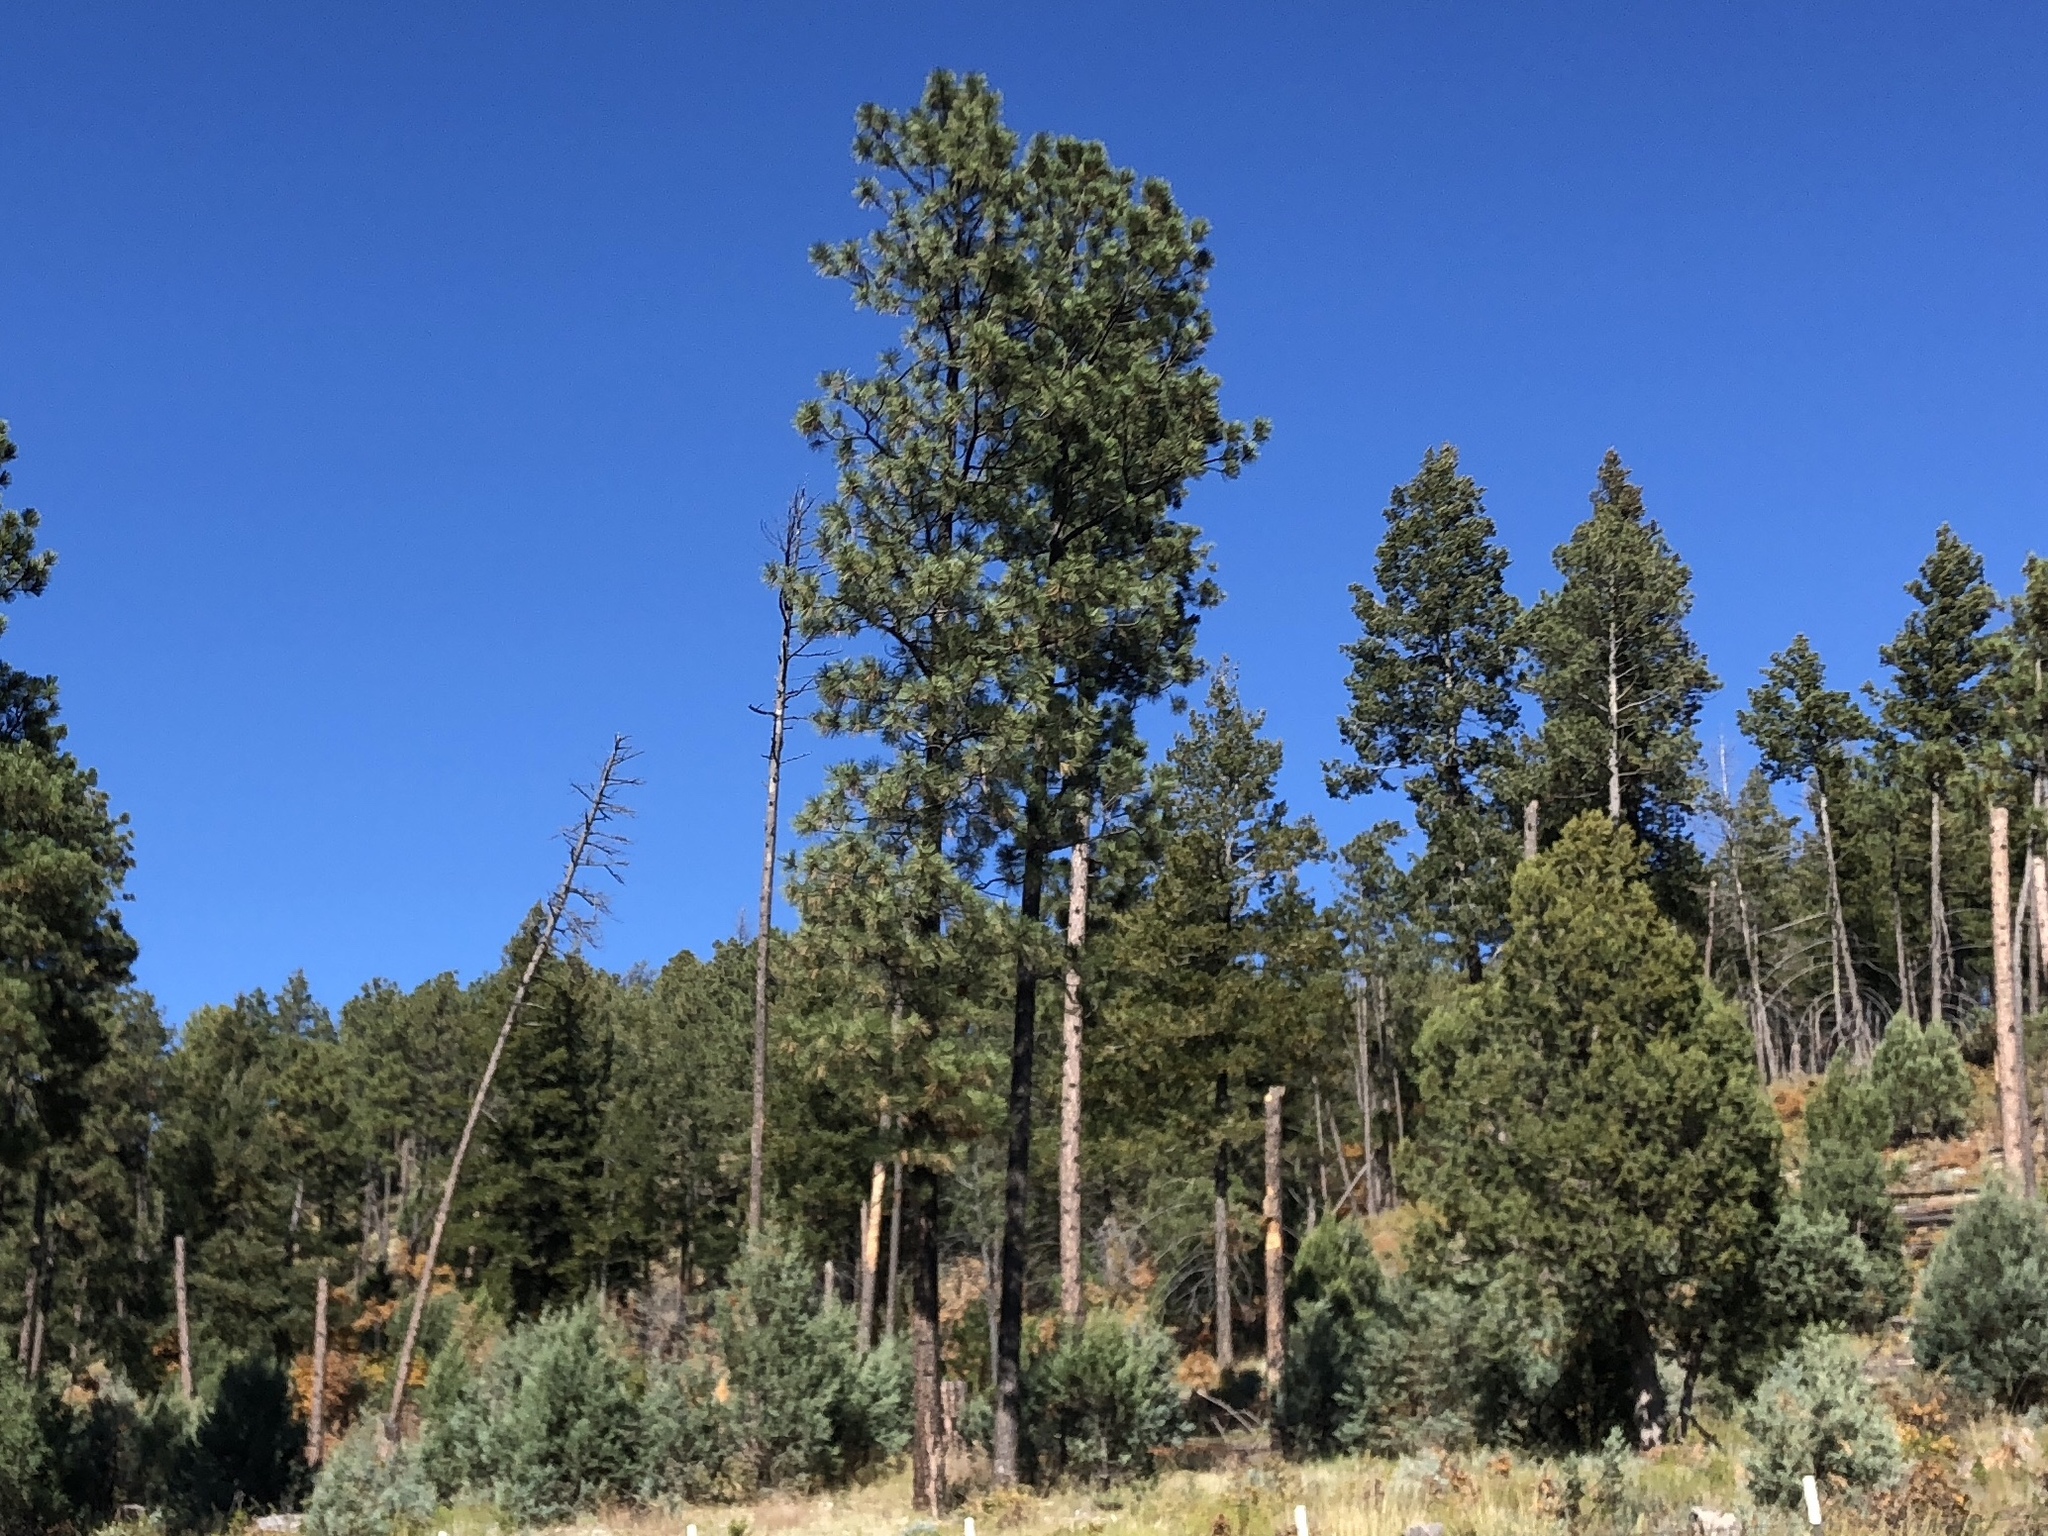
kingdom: Plantae
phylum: Tracheophyta
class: Pinopsida
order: Pinales
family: Pinaceae
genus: Pinus
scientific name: Pinus ponderosa
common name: Western yellow-pine
